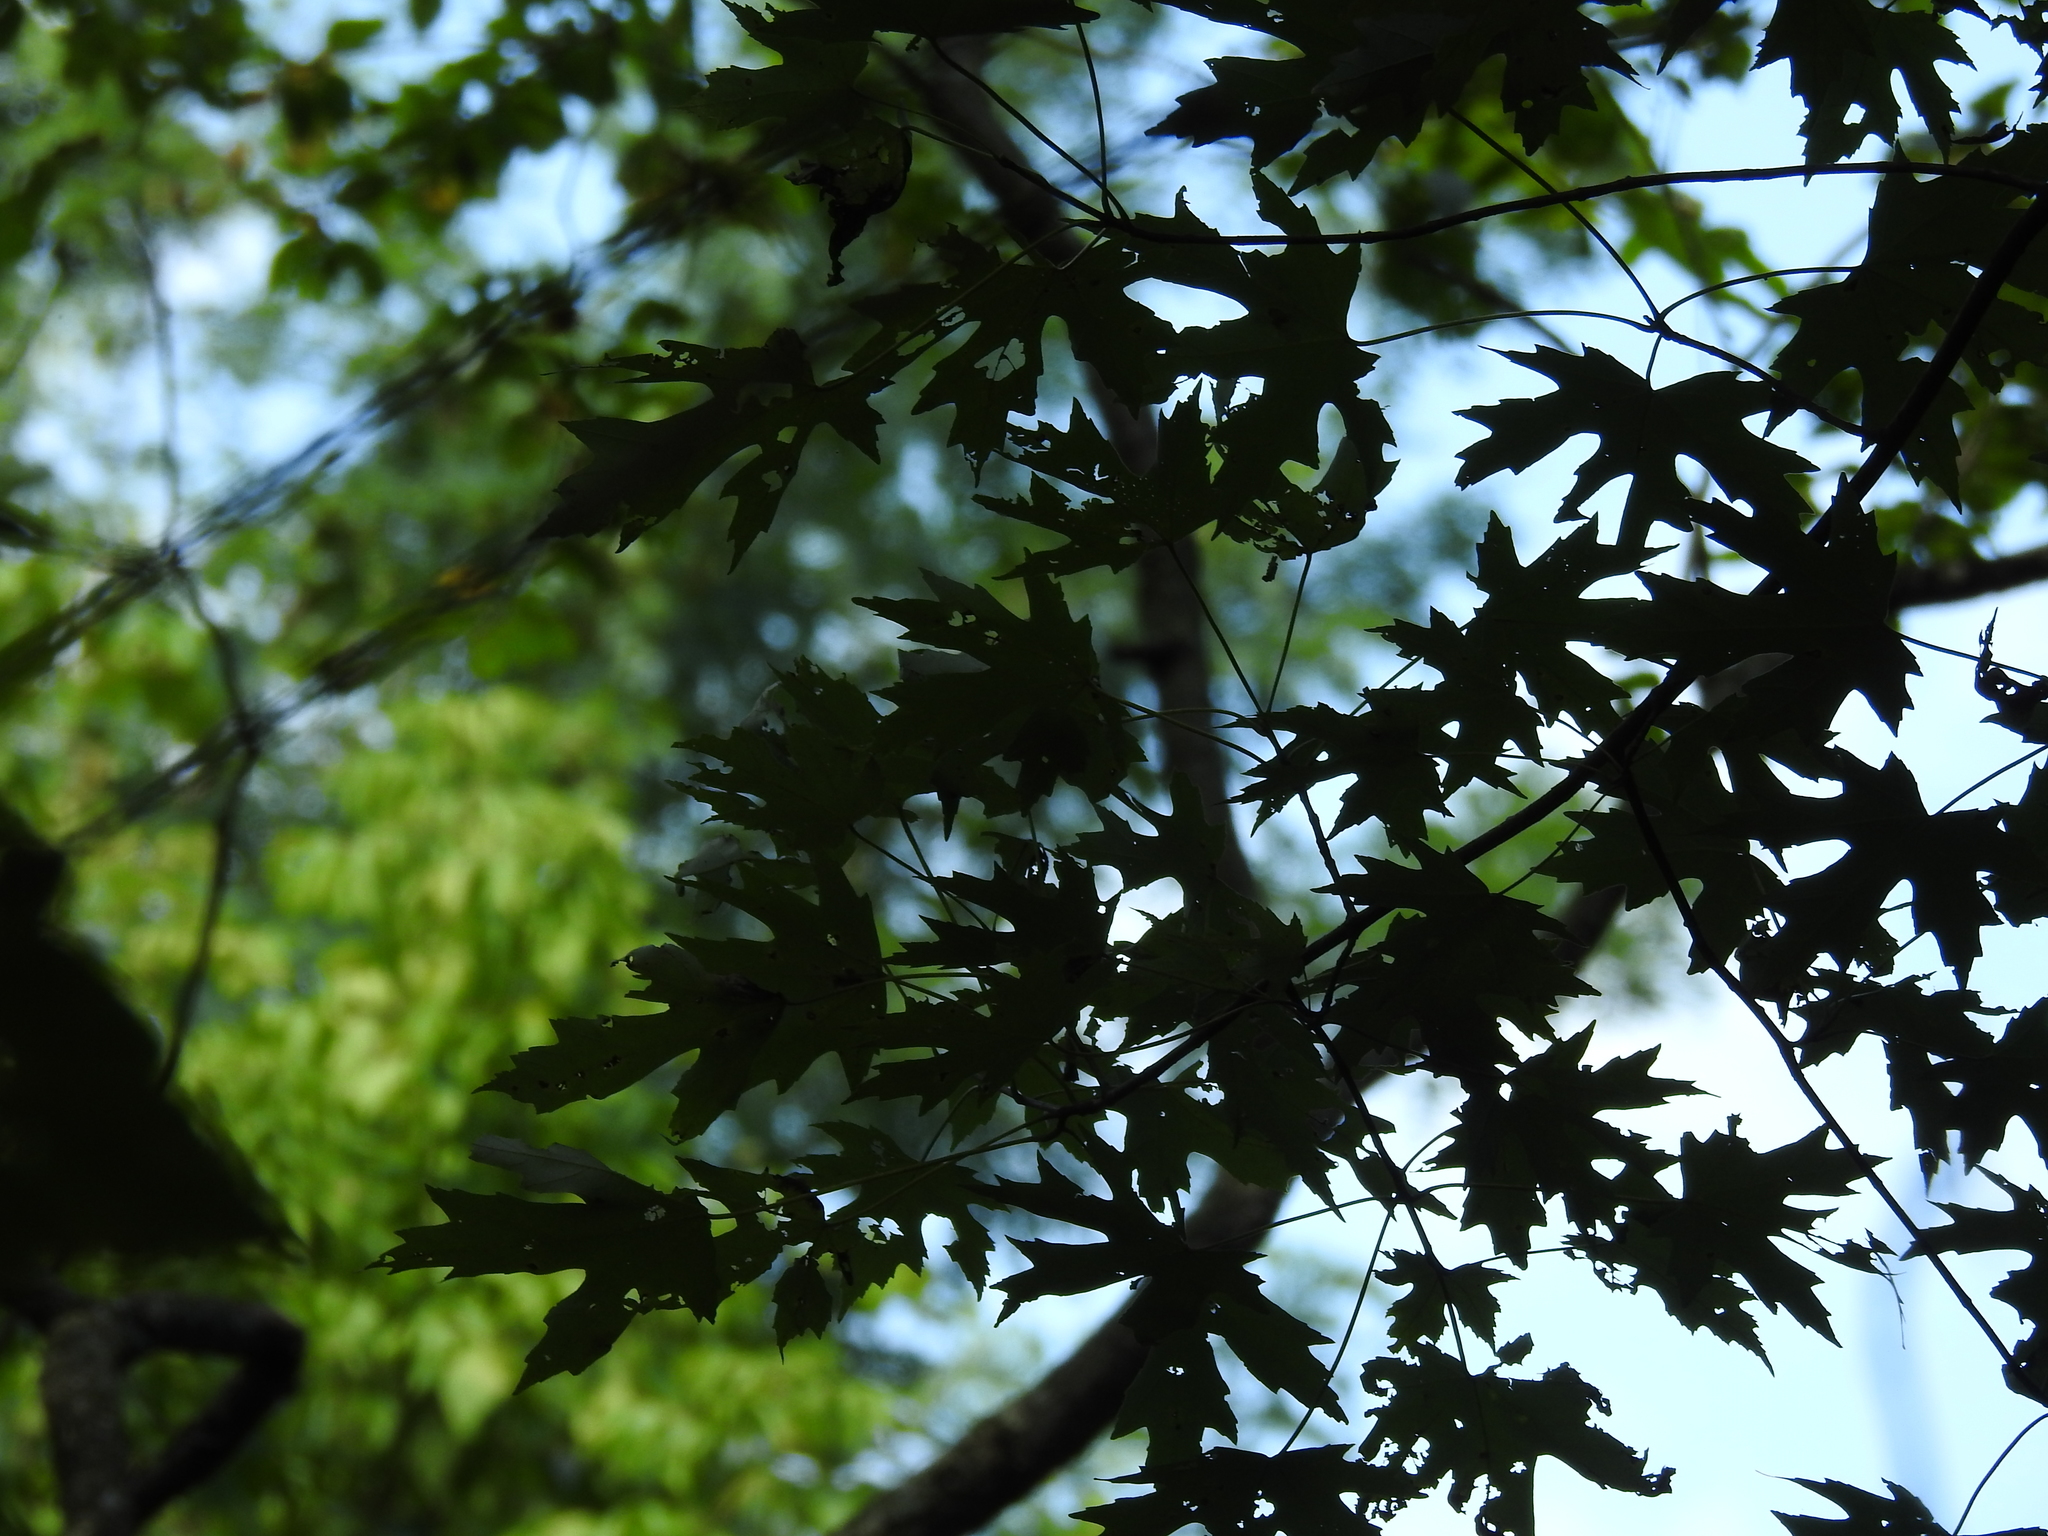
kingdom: Plantae
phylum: Tracheophyta
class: Magnoliopsida
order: Sapindales
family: Sapindaceae
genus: Acer
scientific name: Acer saccharinum
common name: Silver maple
